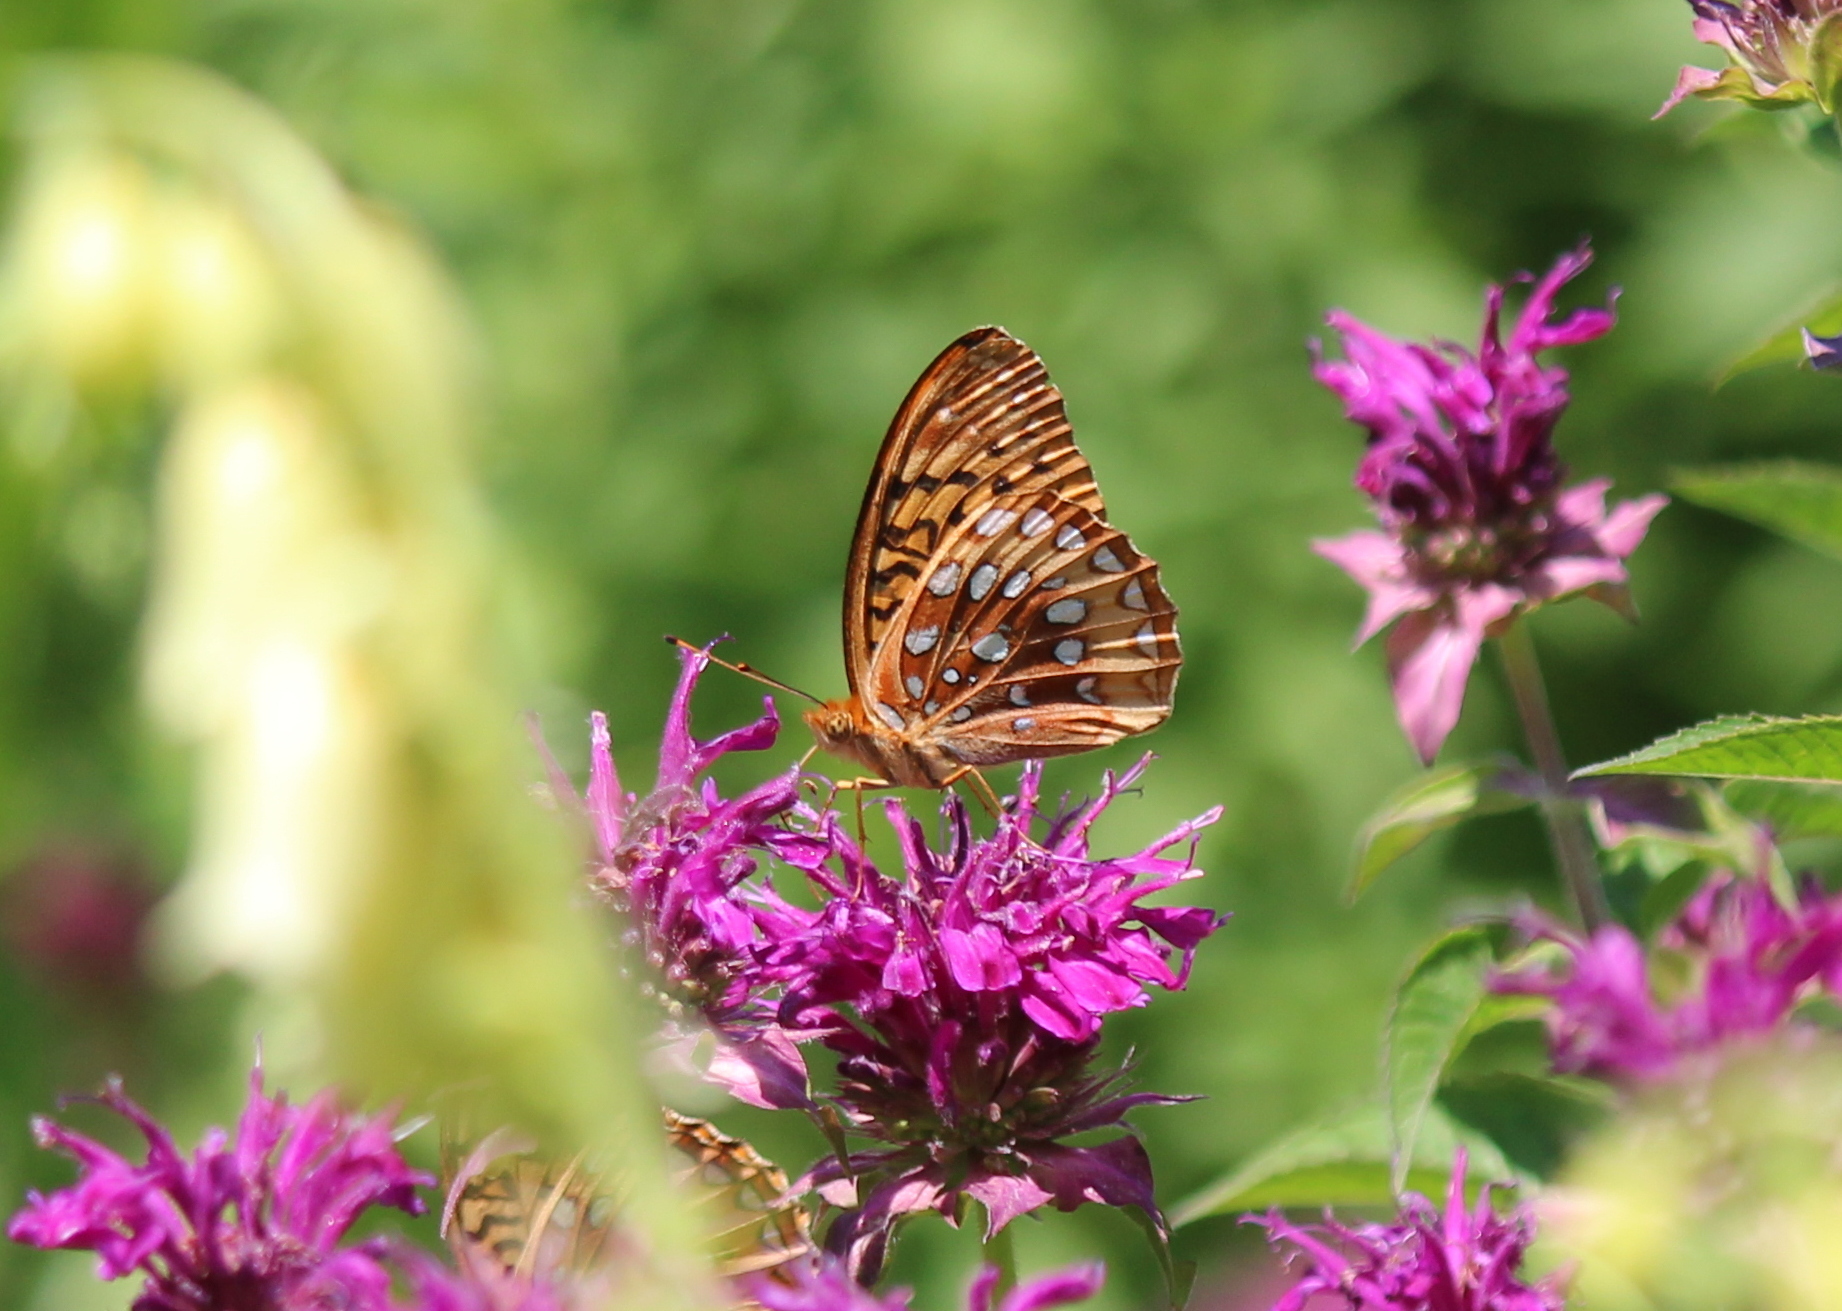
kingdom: Animalia
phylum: Arthropoda
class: Insecta
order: Lepidoptera
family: Nymphalidae
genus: Speyeria
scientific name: Speyeria cybele
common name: Great spangled fritillary
